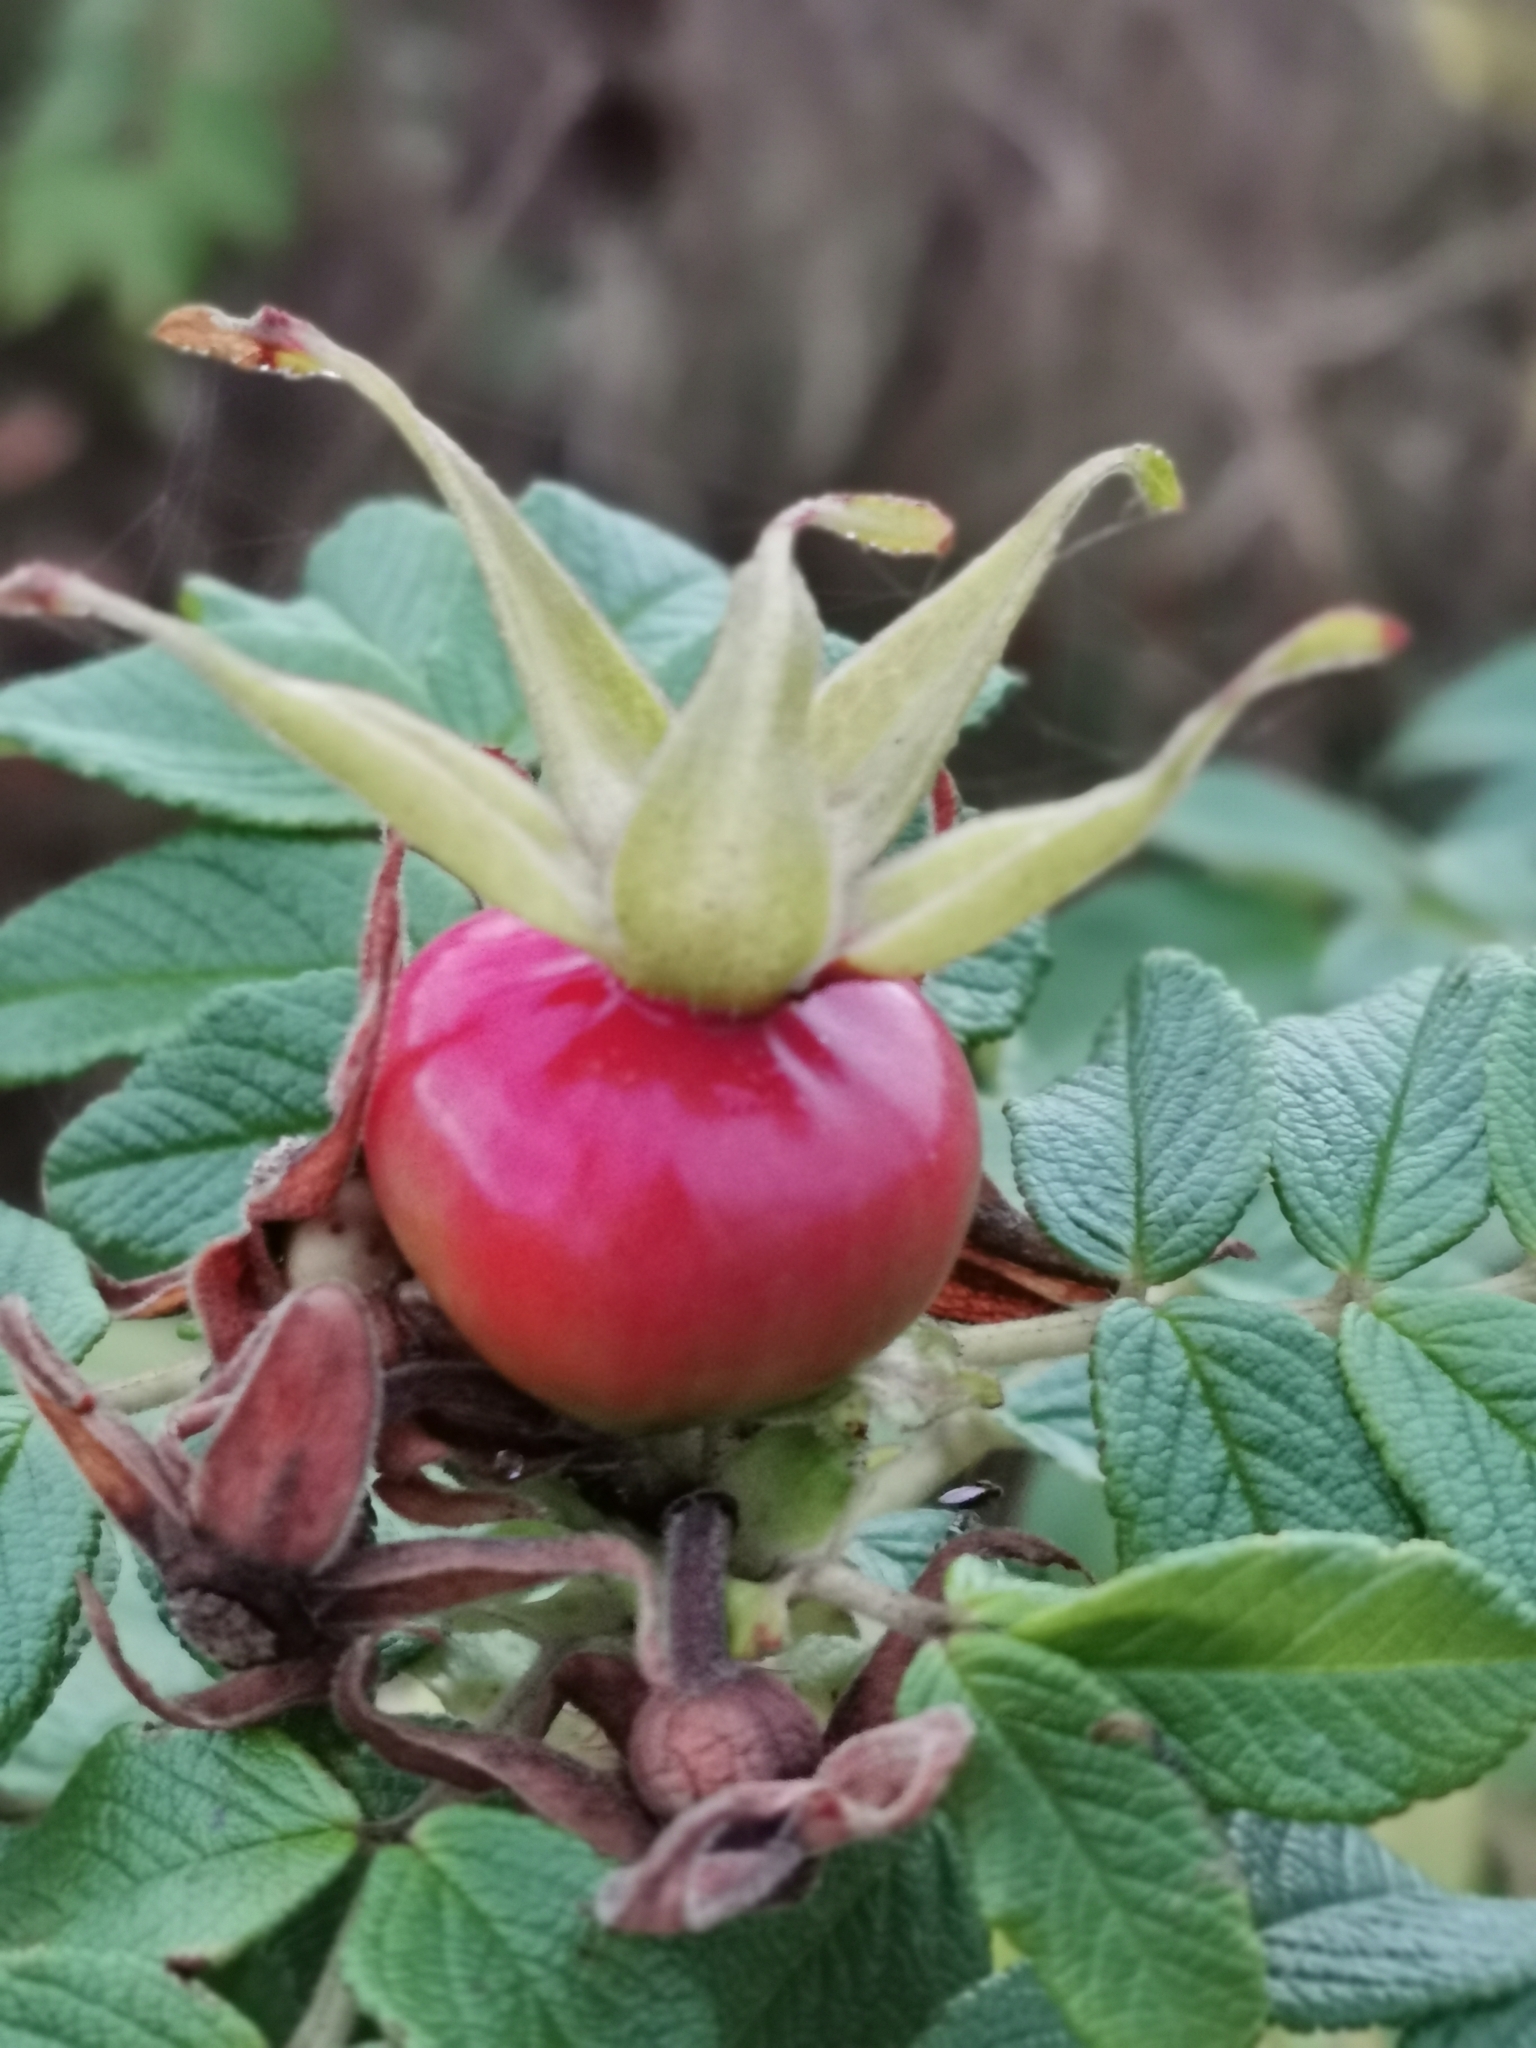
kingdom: Plantae
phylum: Tracheophyta
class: Magnoliopsida
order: Rosales
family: Rosaceae
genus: Rosa
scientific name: Rosa rugosa
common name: Japanese rose
